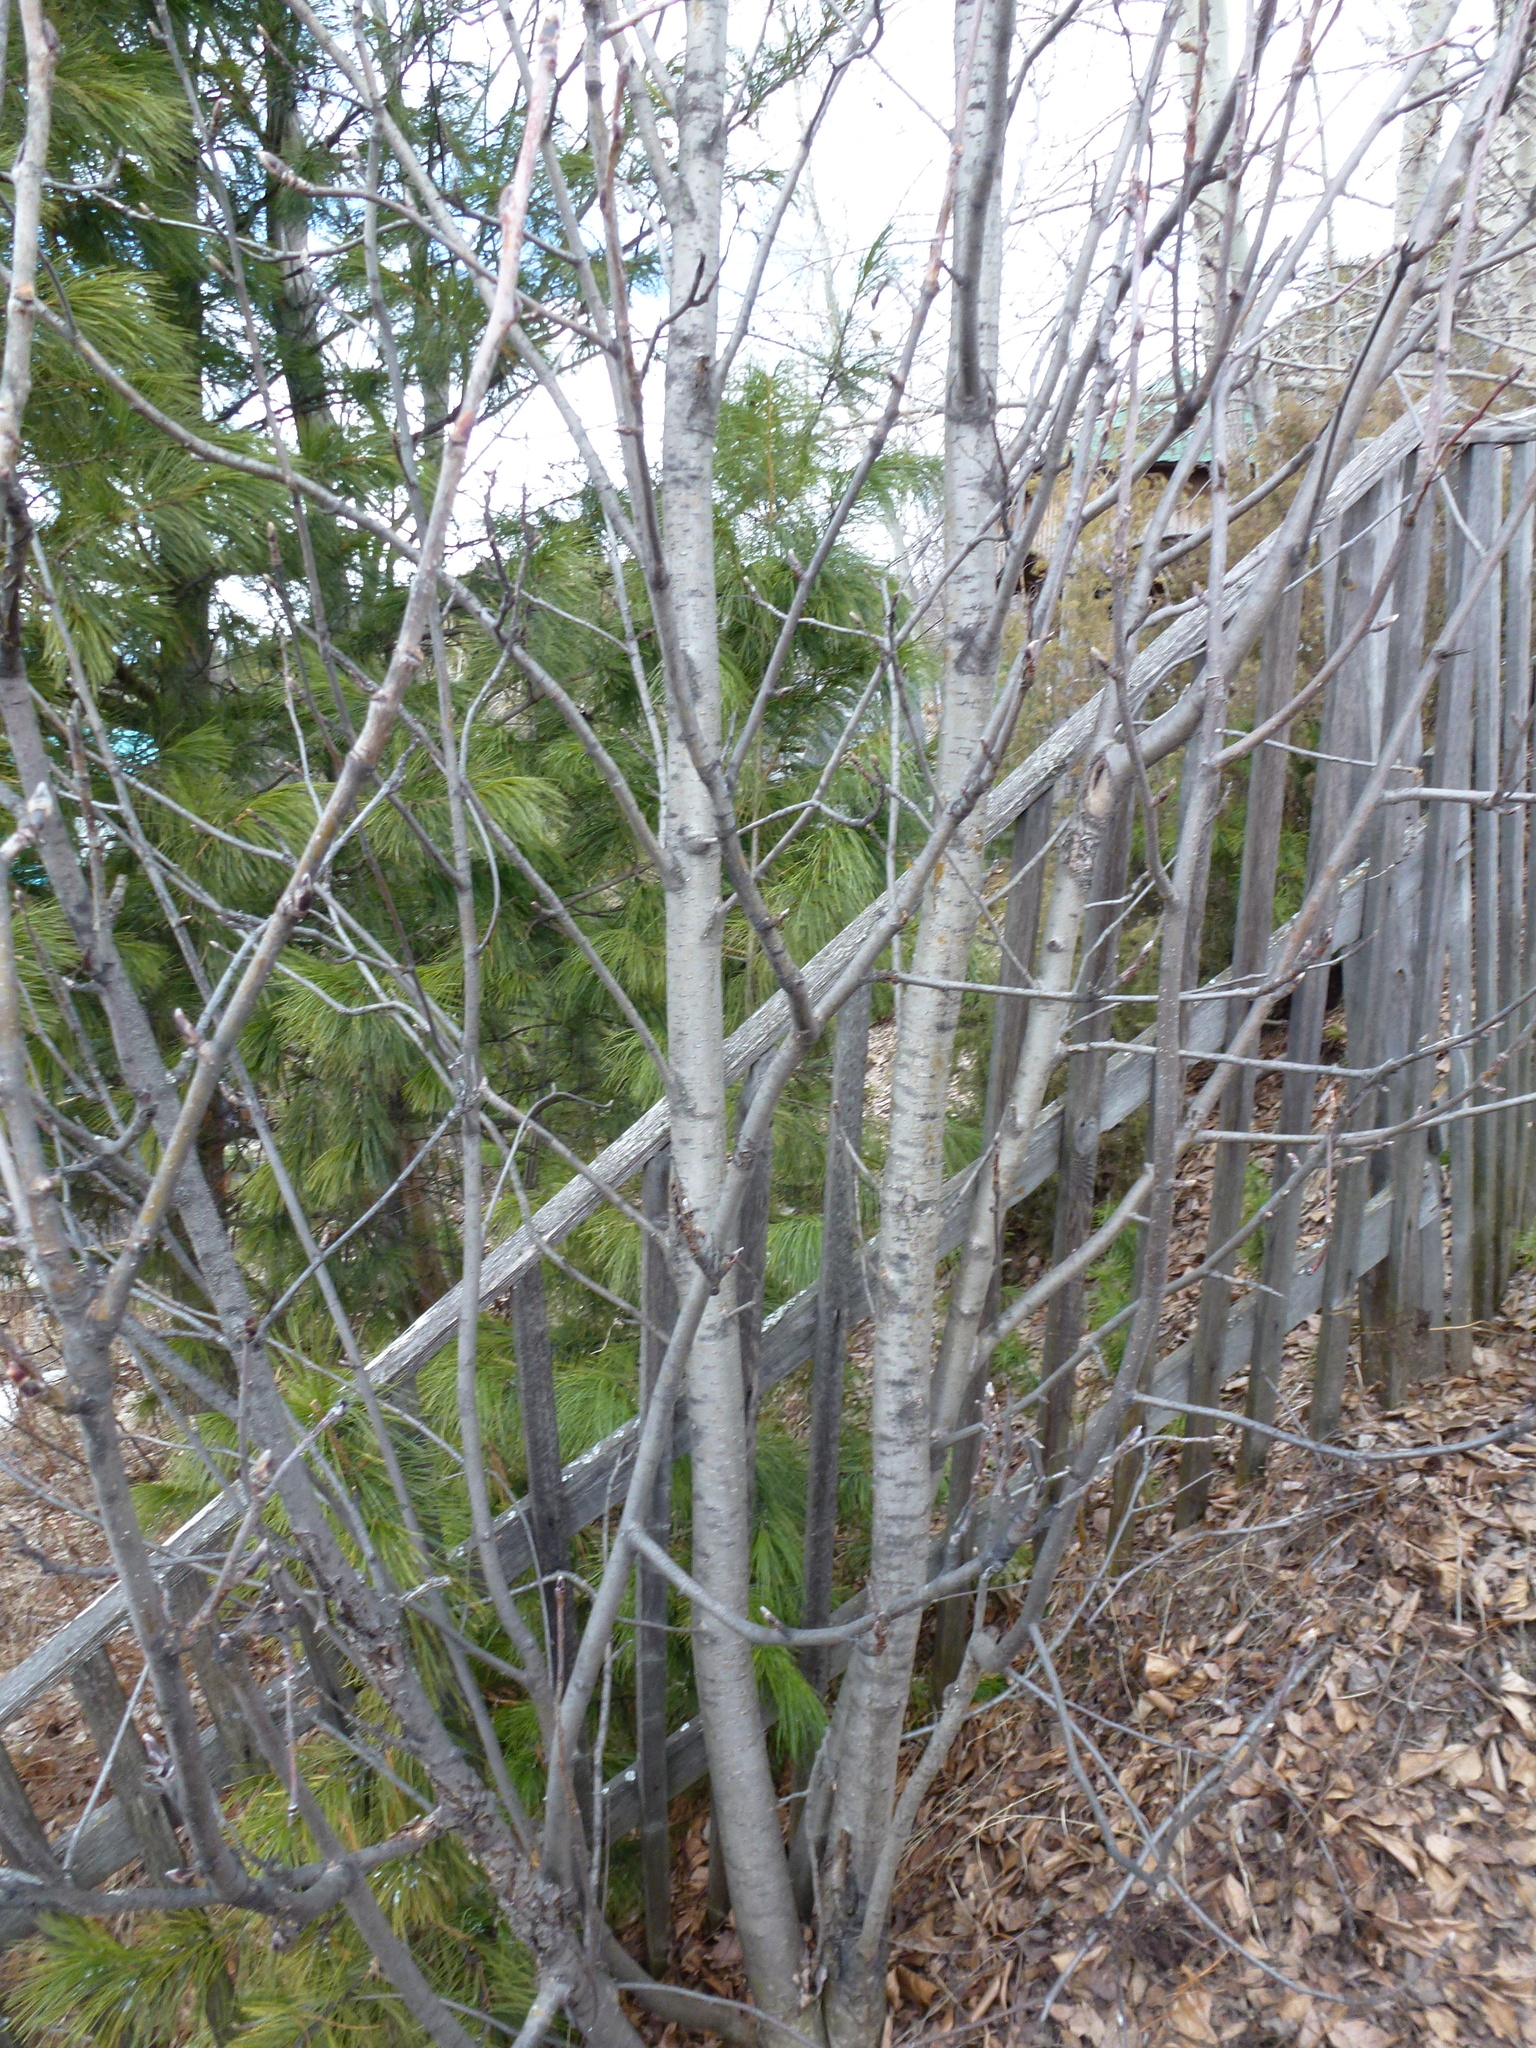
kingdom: Plantae
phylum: Tracheophyta
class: Magnoliopsida
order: Rosales
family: Rosaceae
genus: Sorbus
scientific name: Sorbus aucuparia
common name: Rowan
